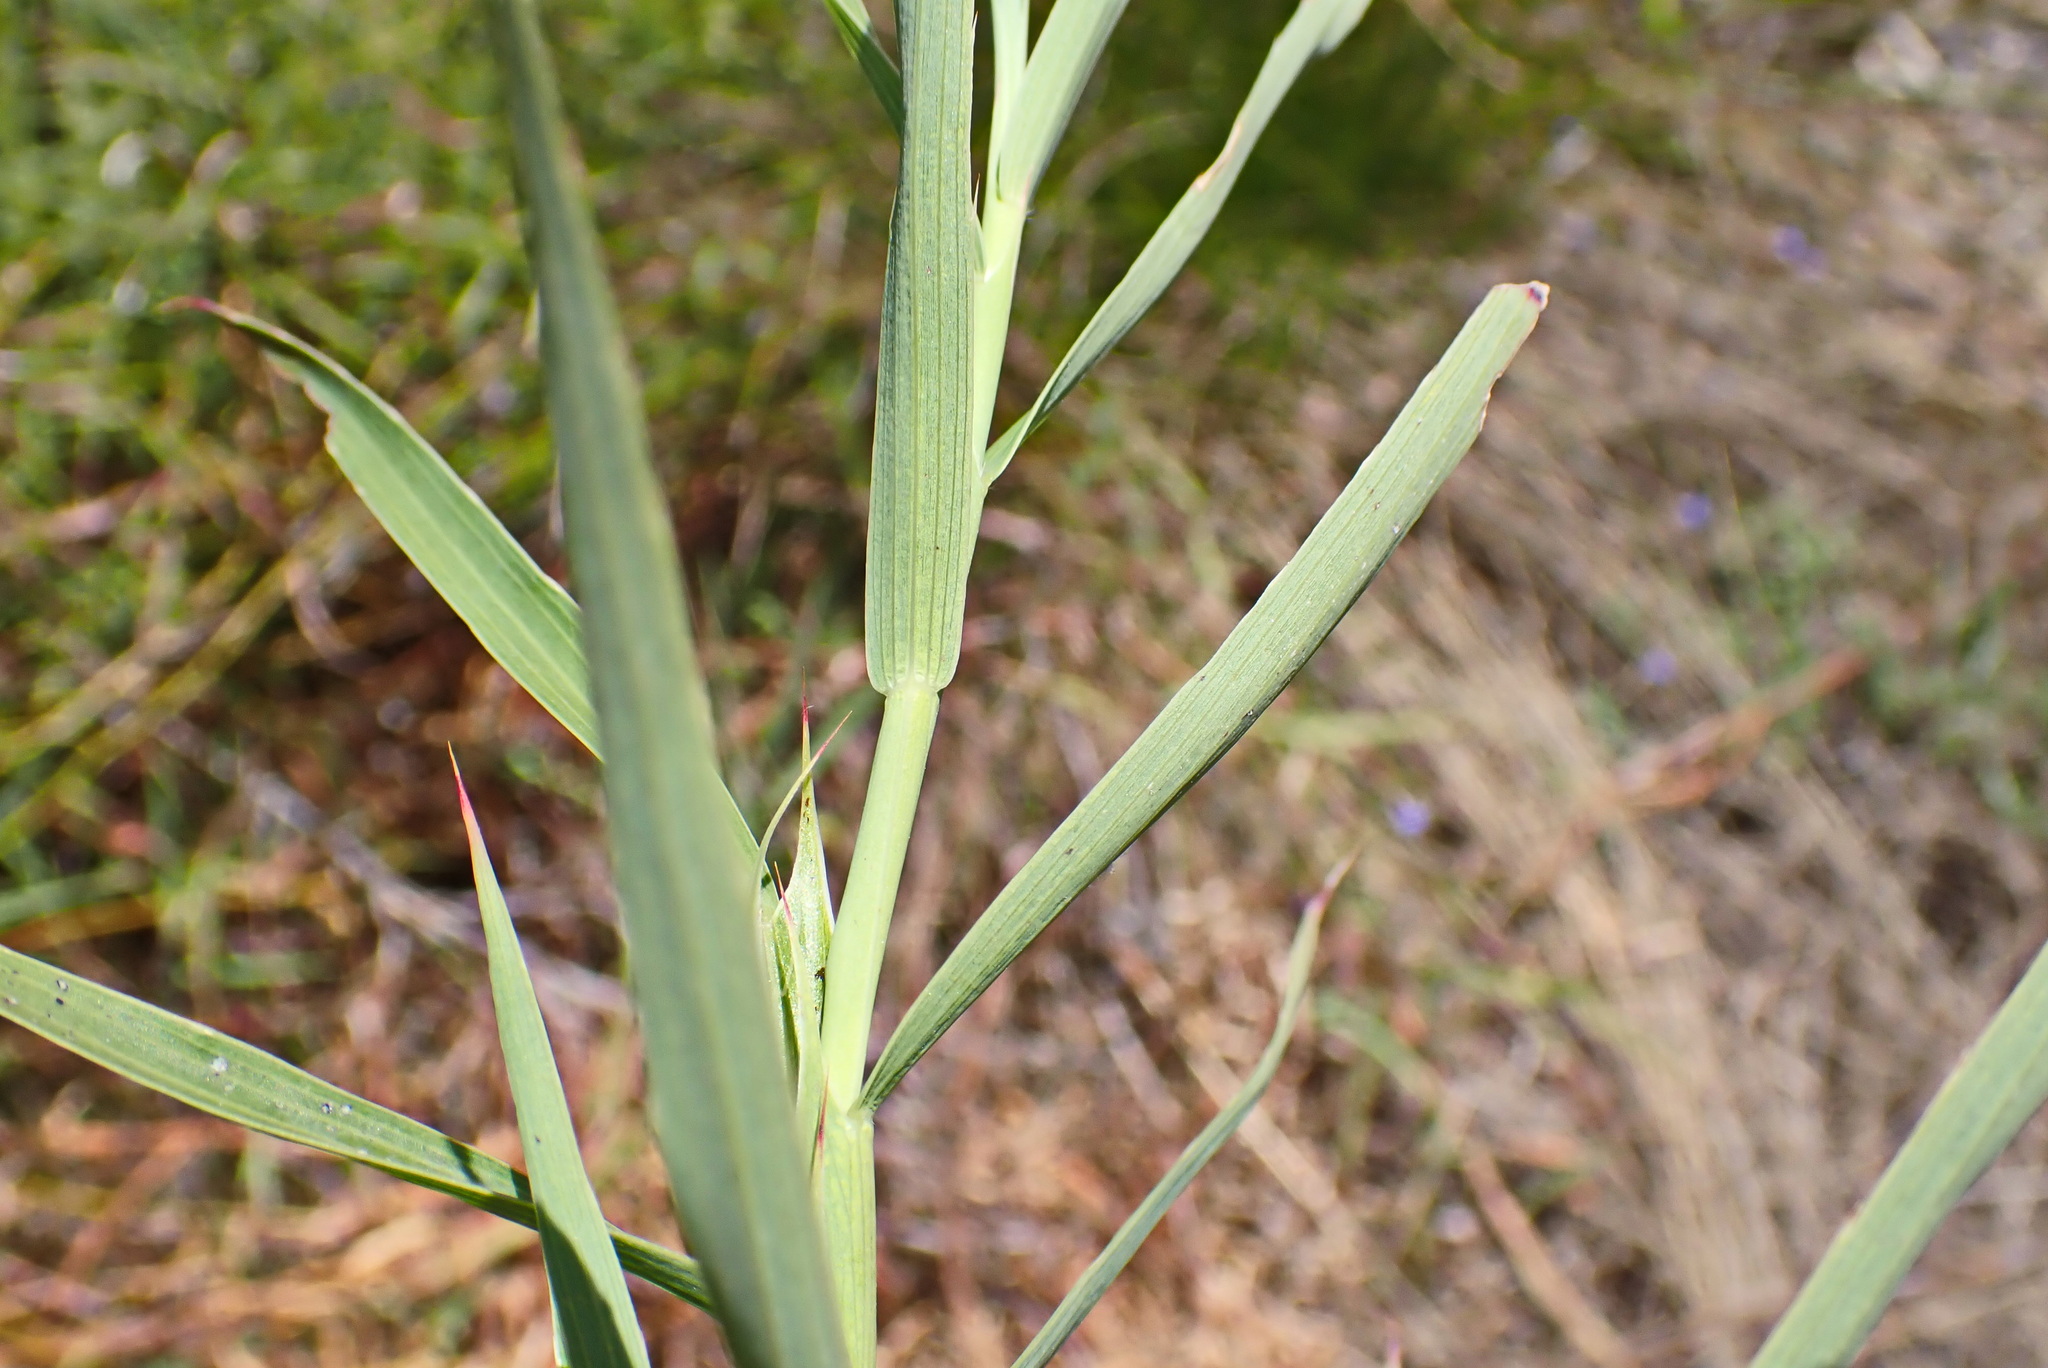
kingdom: Plantae
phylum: Tracheophyta
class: Magnoliopsida
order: Rosales
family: Rosaceae
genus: Cliffortia
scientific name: Cliffortia graminea
